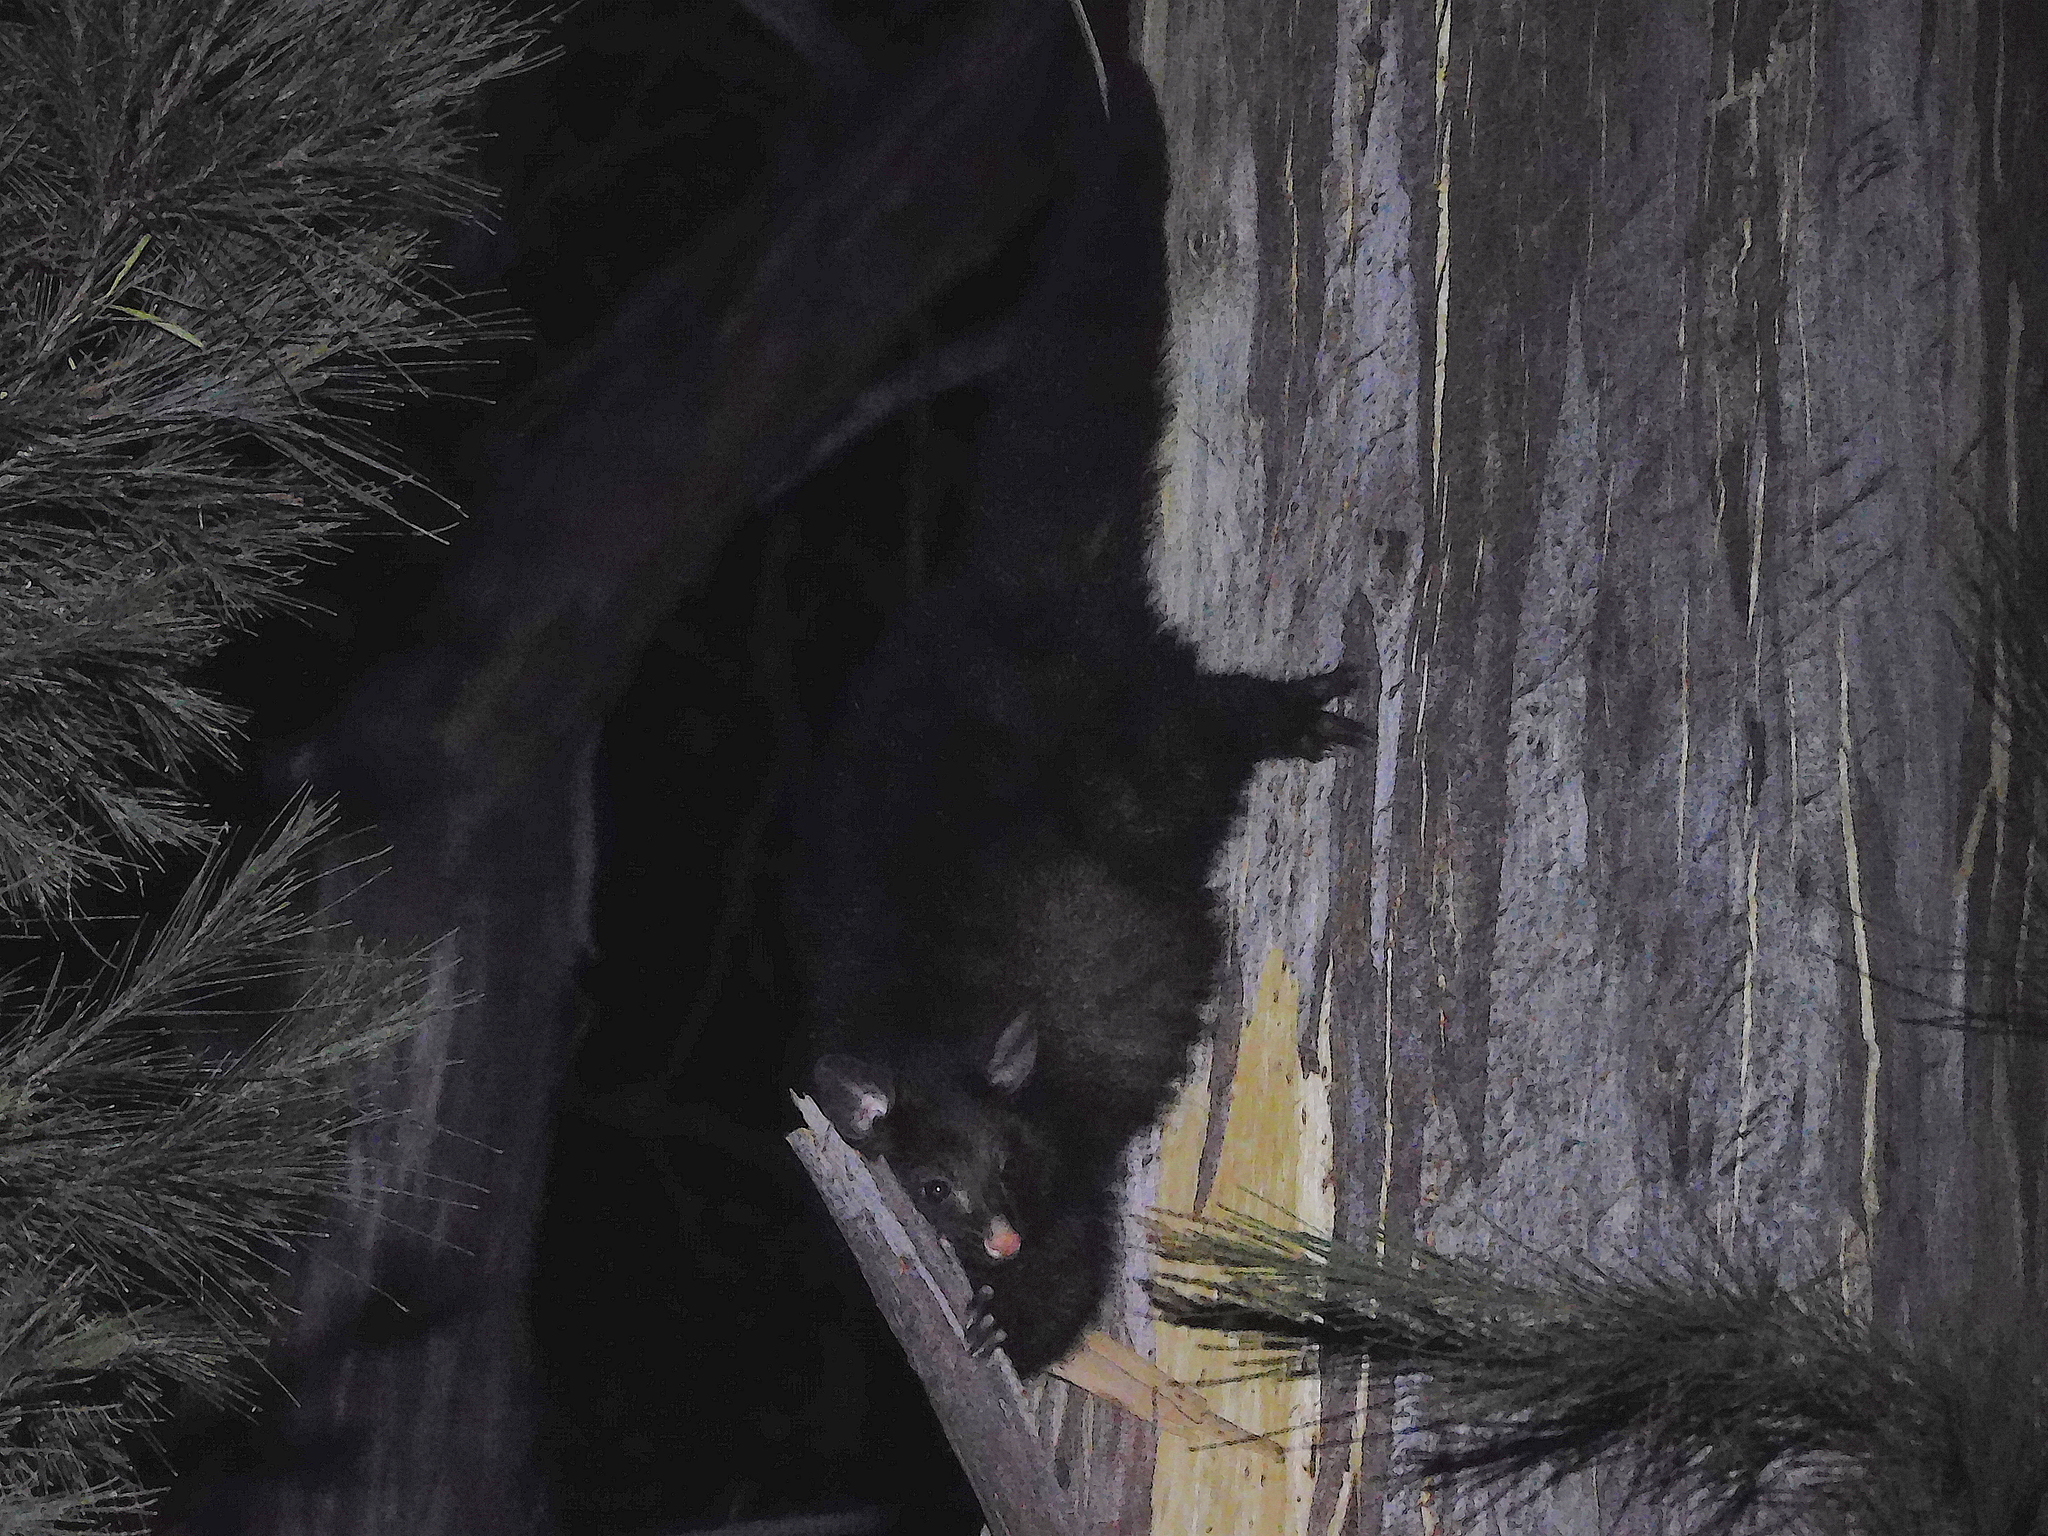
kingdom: Animalia
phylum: Chordata
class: Mammalia
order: Diprotodontia
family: Phalangeridae
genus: Trichosurus
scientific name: Trichosurus vulpecula
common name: Common brushtail
